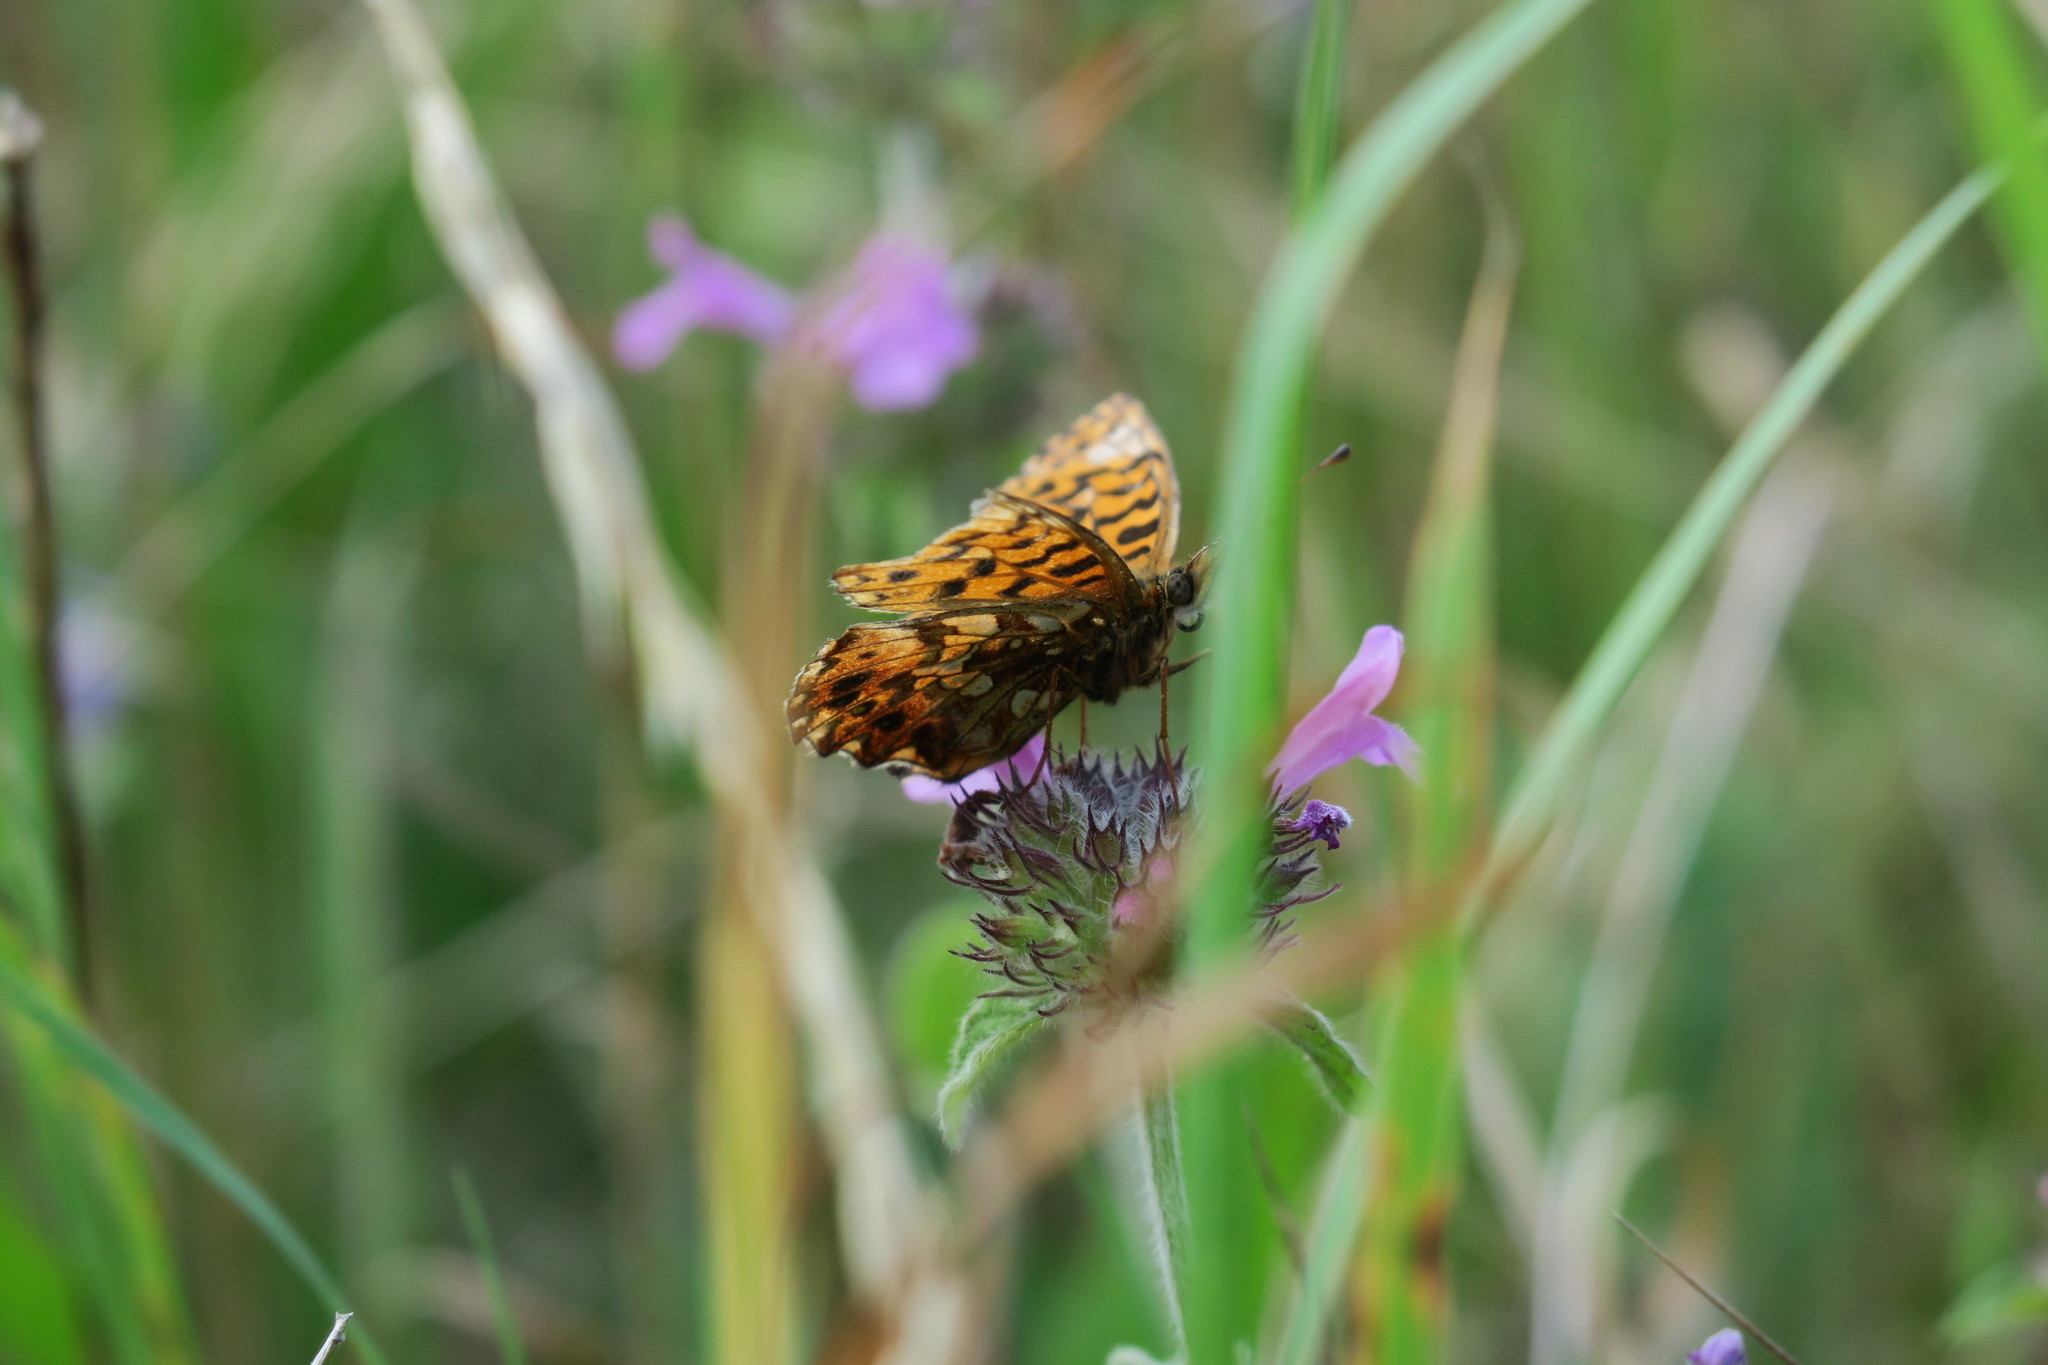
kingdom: Animalia
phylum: Arthropoda
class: Insecta
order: Lepidoptera
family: Nymphalidae
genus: Boloria
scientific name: Boloria dia
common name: Weaver's fritillary
